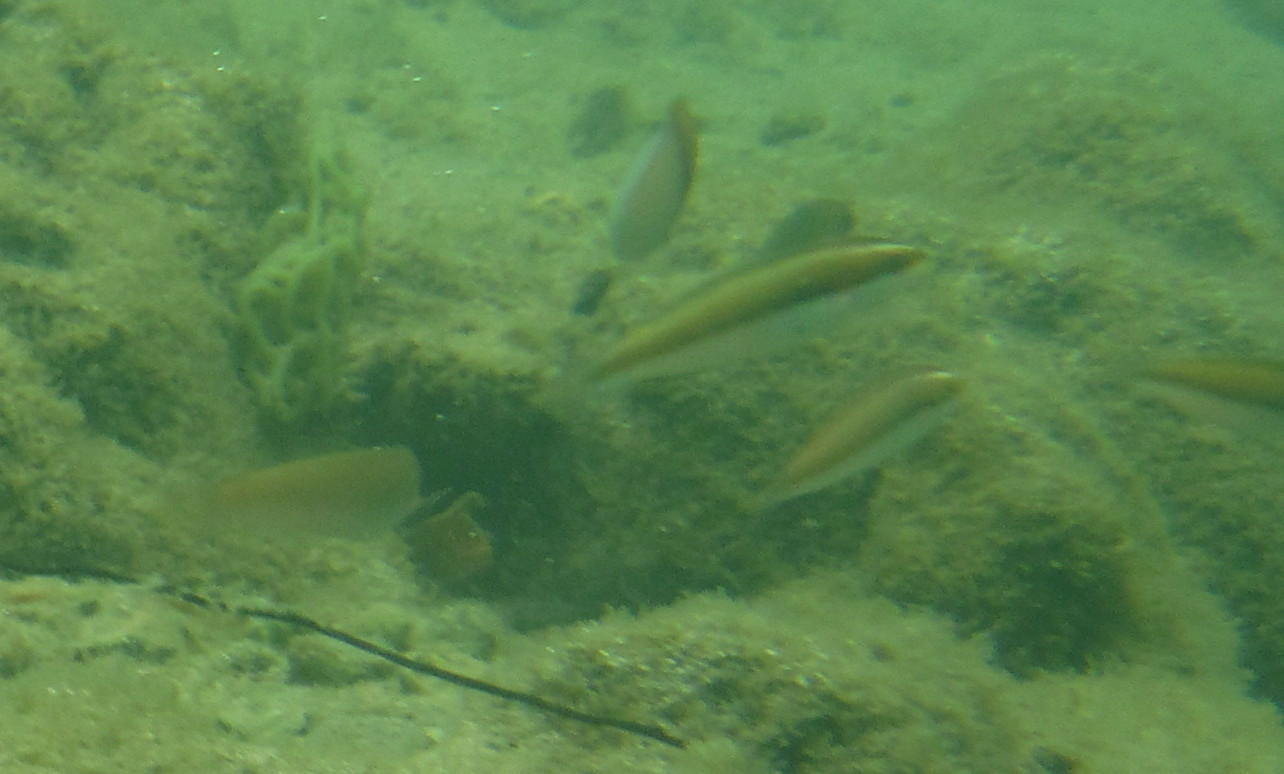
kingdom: Animalia
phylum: Chordata
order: Perciformes
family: Labridae
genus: Stethojulis
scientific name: Stethojulis interrupta
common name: Cutribbon wrasse
